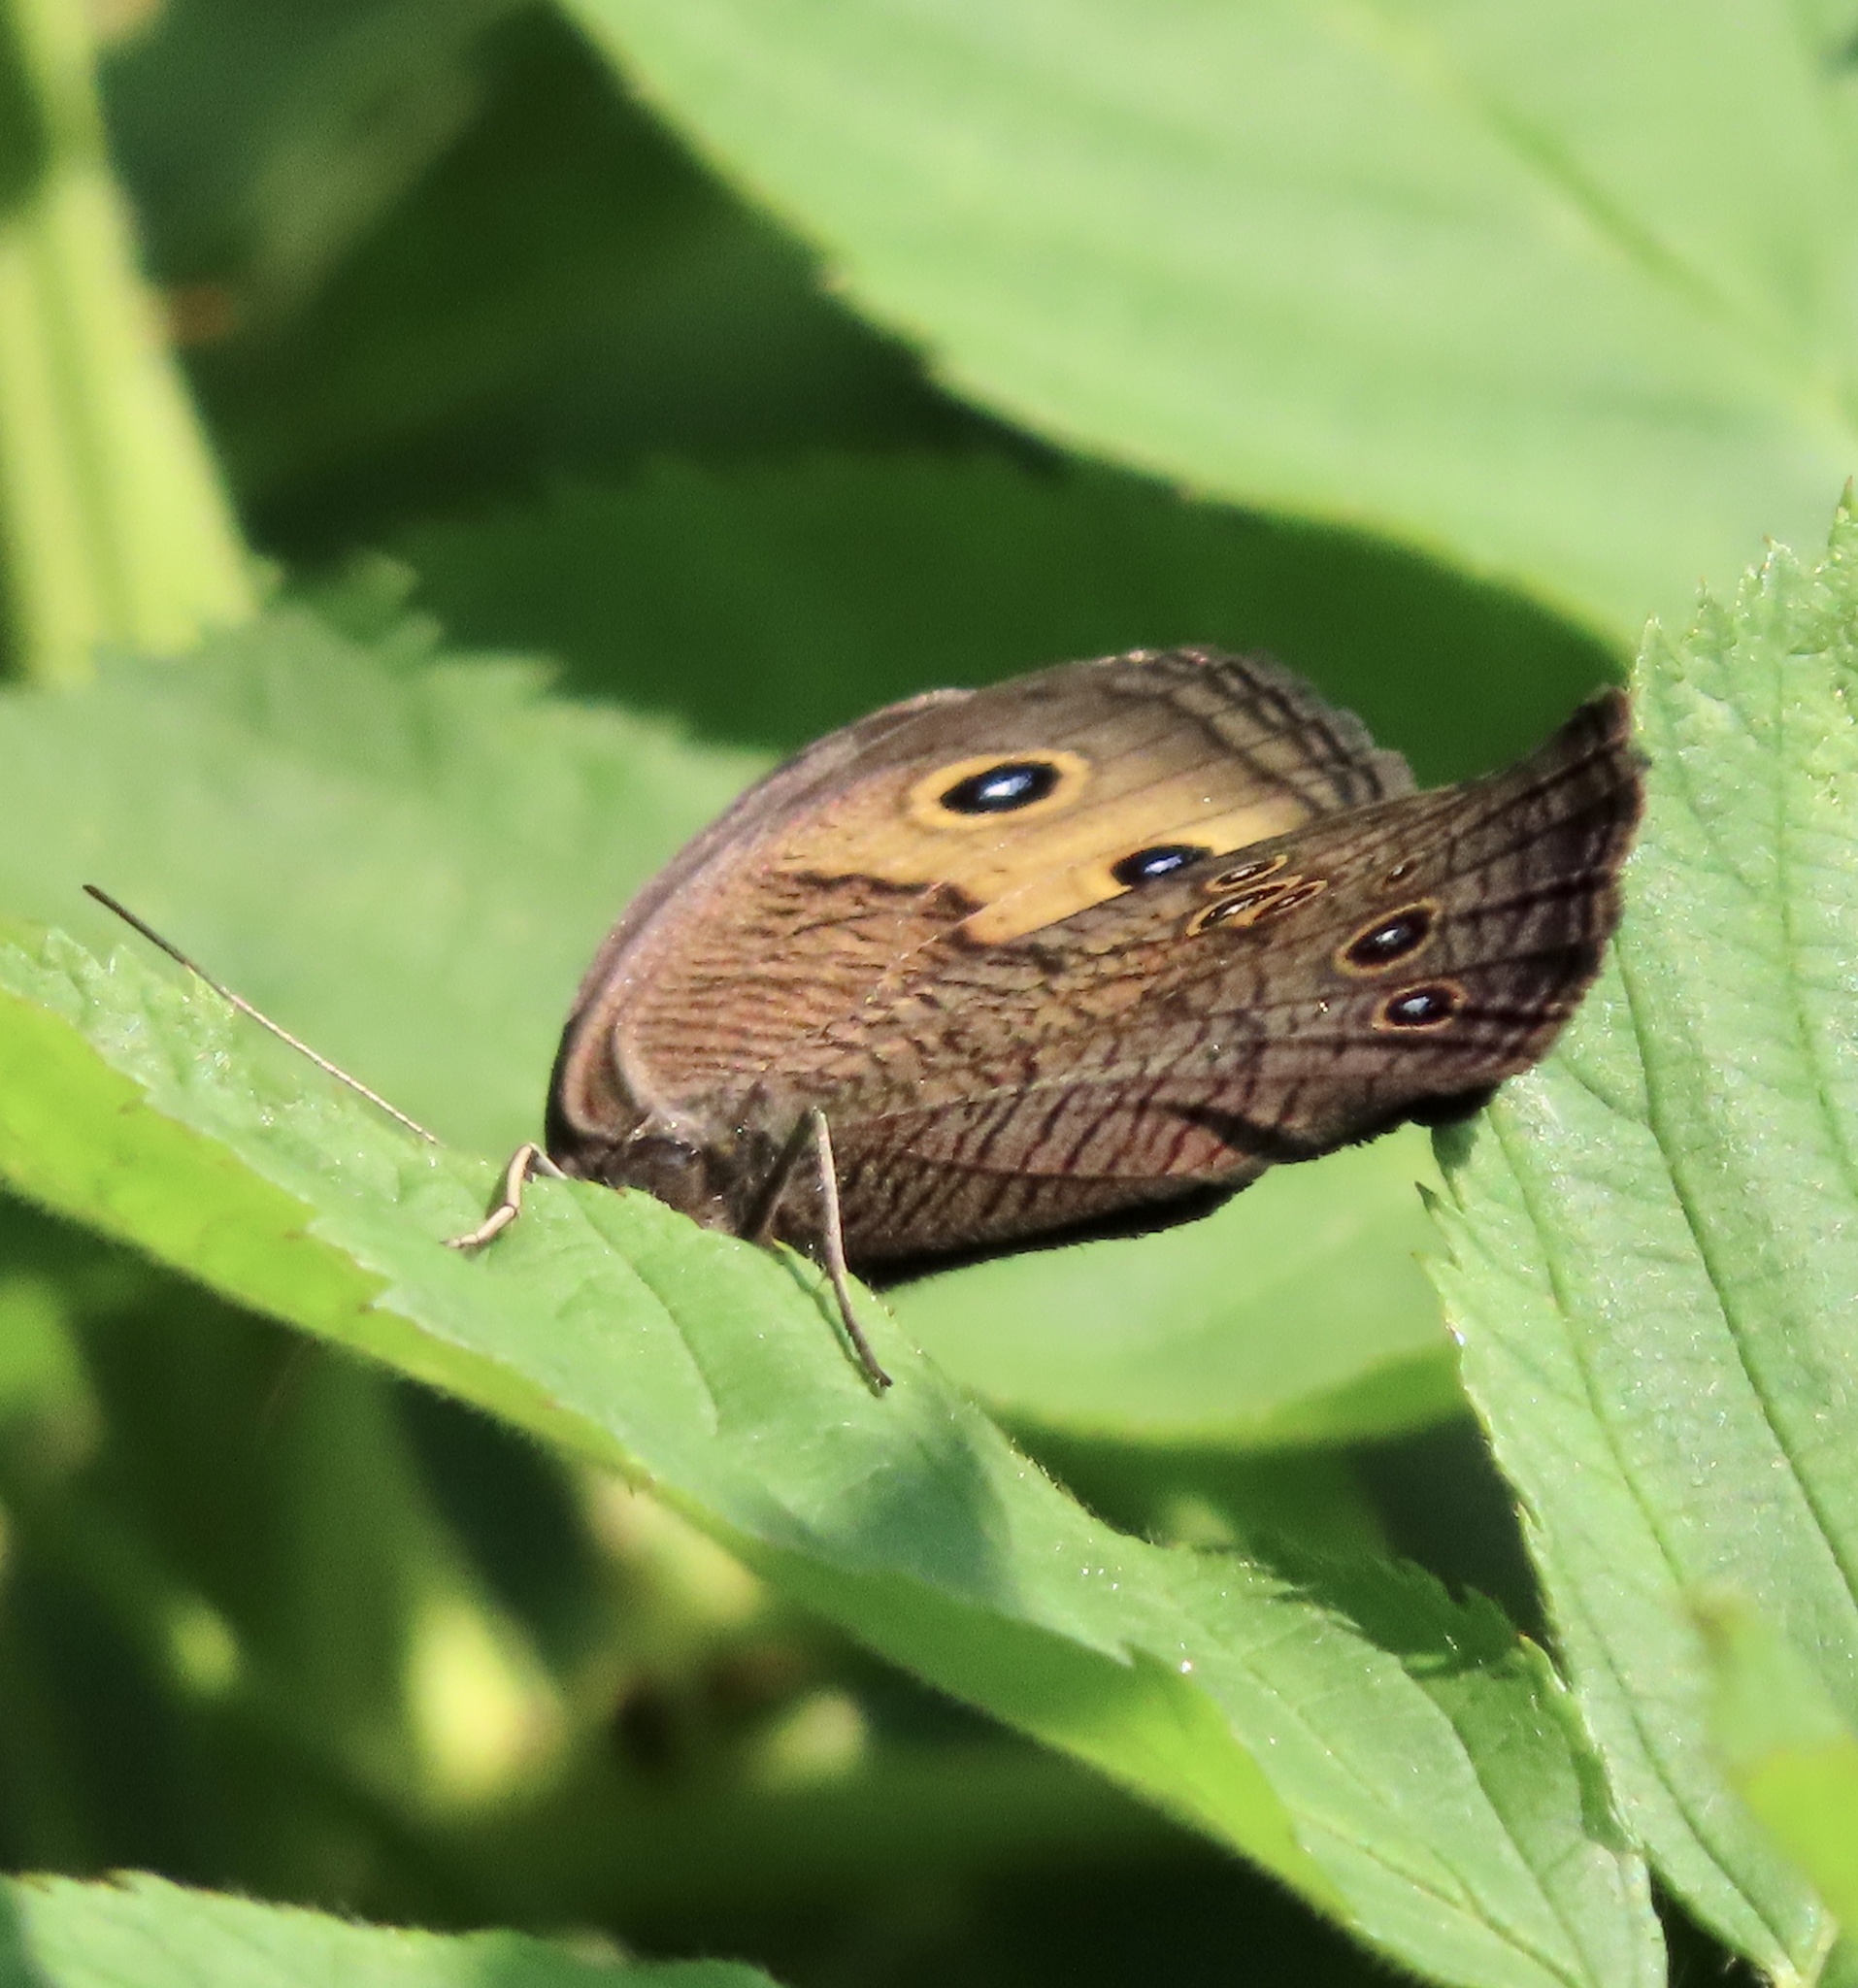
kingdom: Animalia
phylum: Arthropoda
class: Insecta
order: Lepidoptera
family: Nymphalidae
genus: Cercyonis
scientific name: Cercyonis pegala
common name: Common wood-nymph
